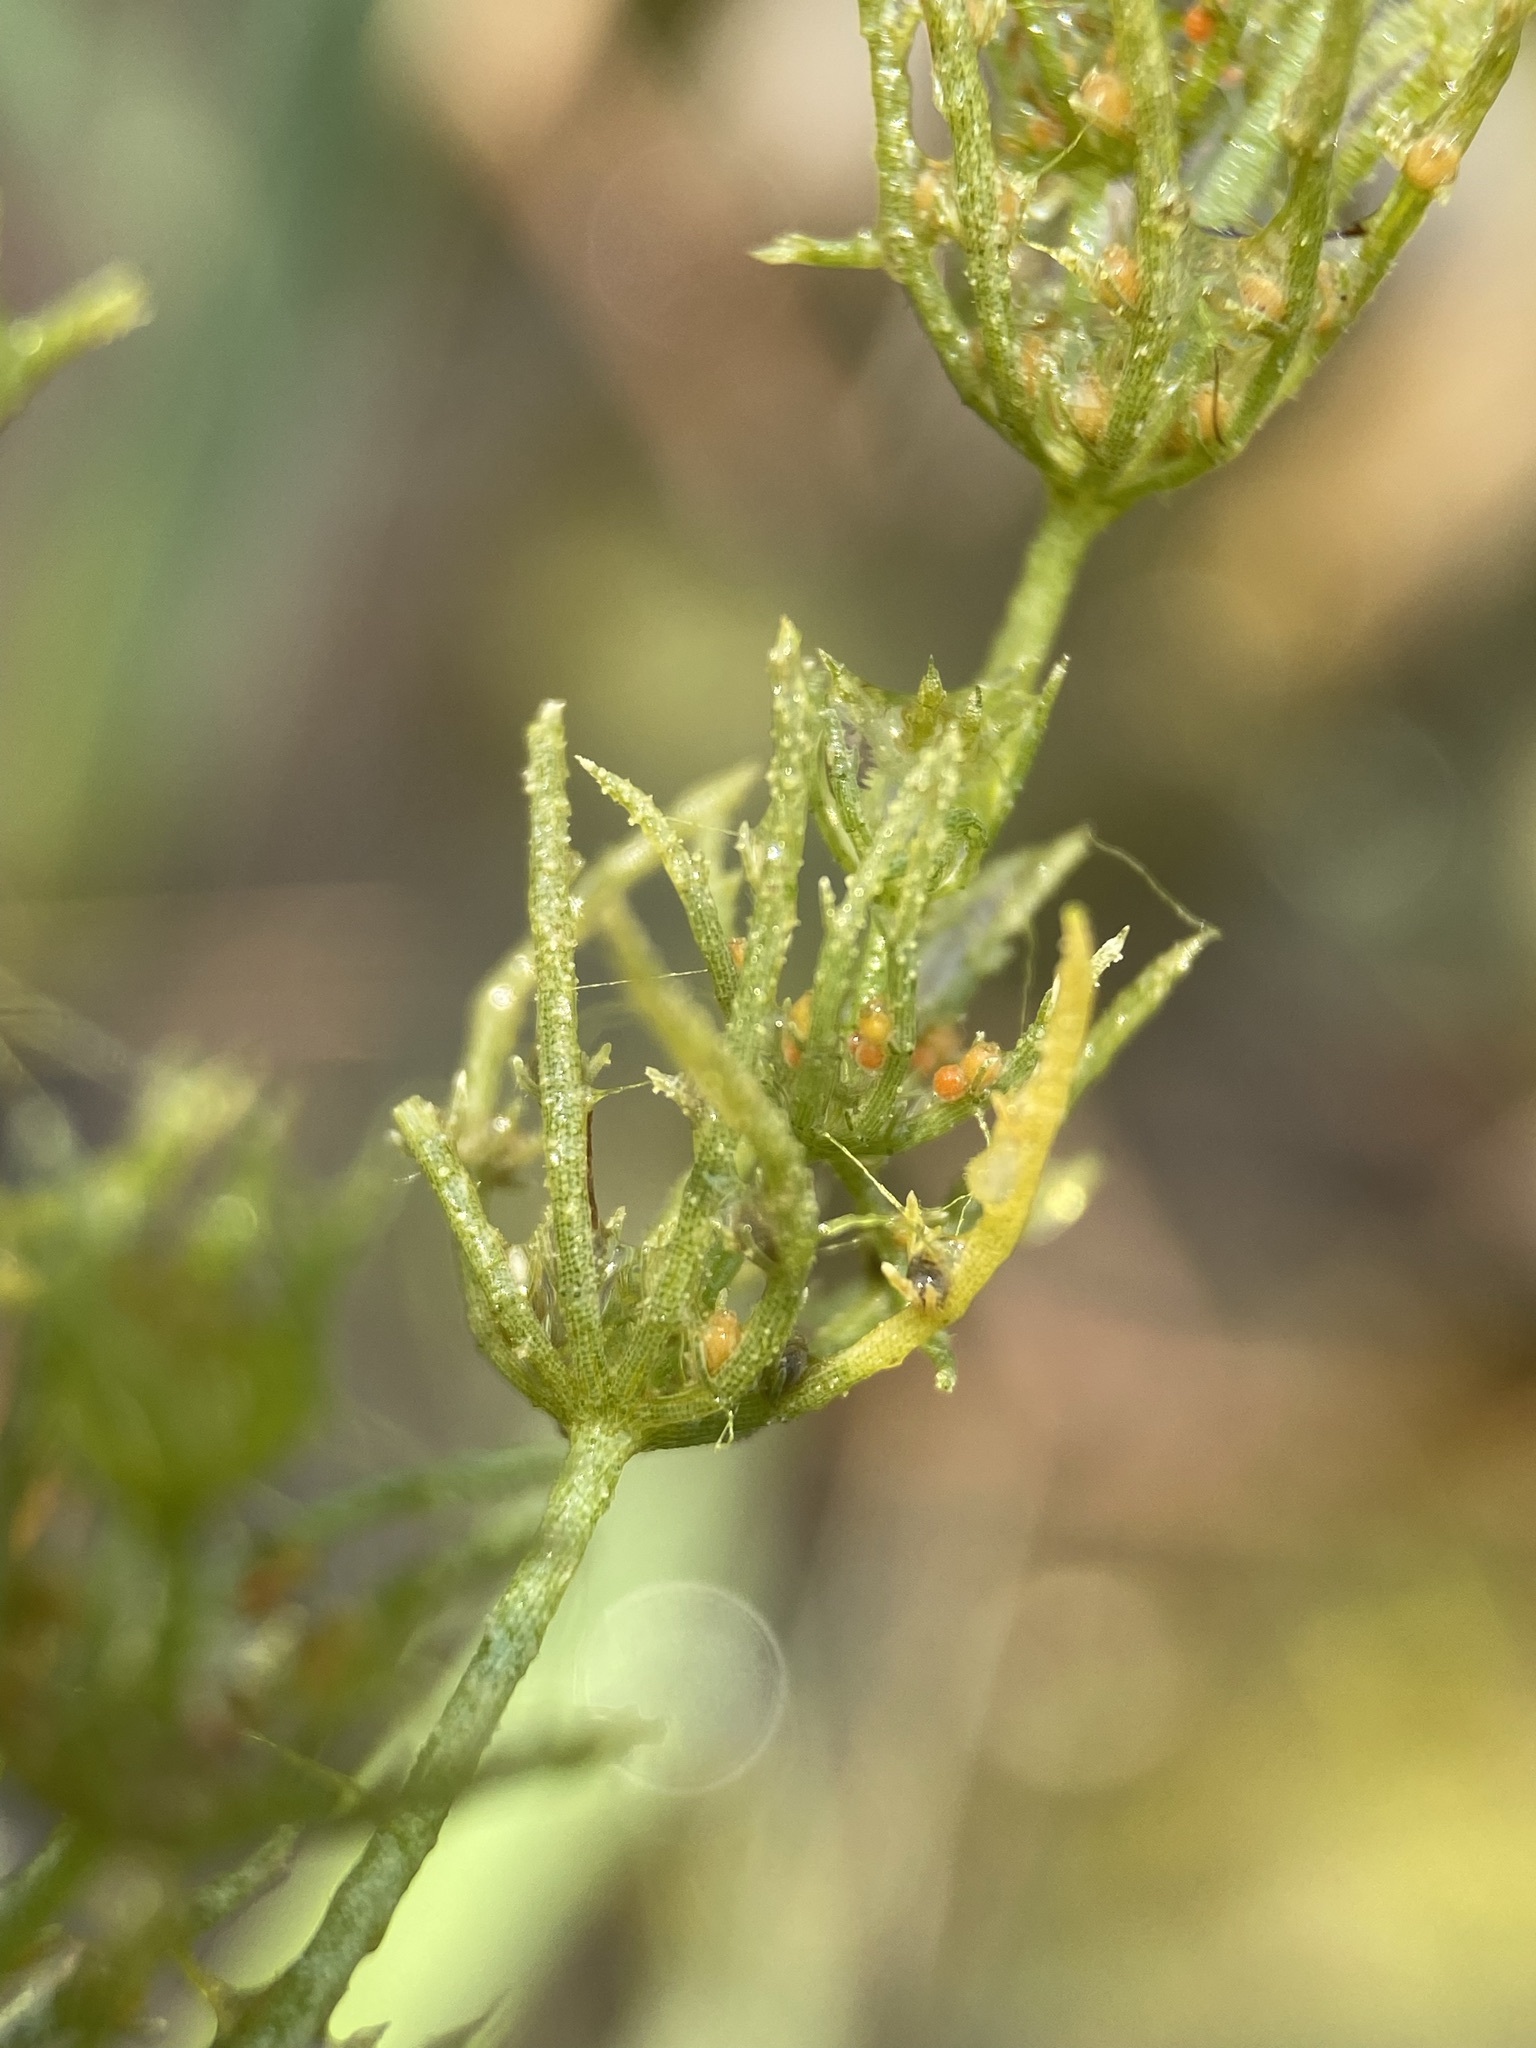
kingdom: Plantae
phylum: Charophyta
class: Charophyceae
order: Charales
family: Characeae
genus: Chara
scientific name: Chara contraria
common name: Opposite stonewort
